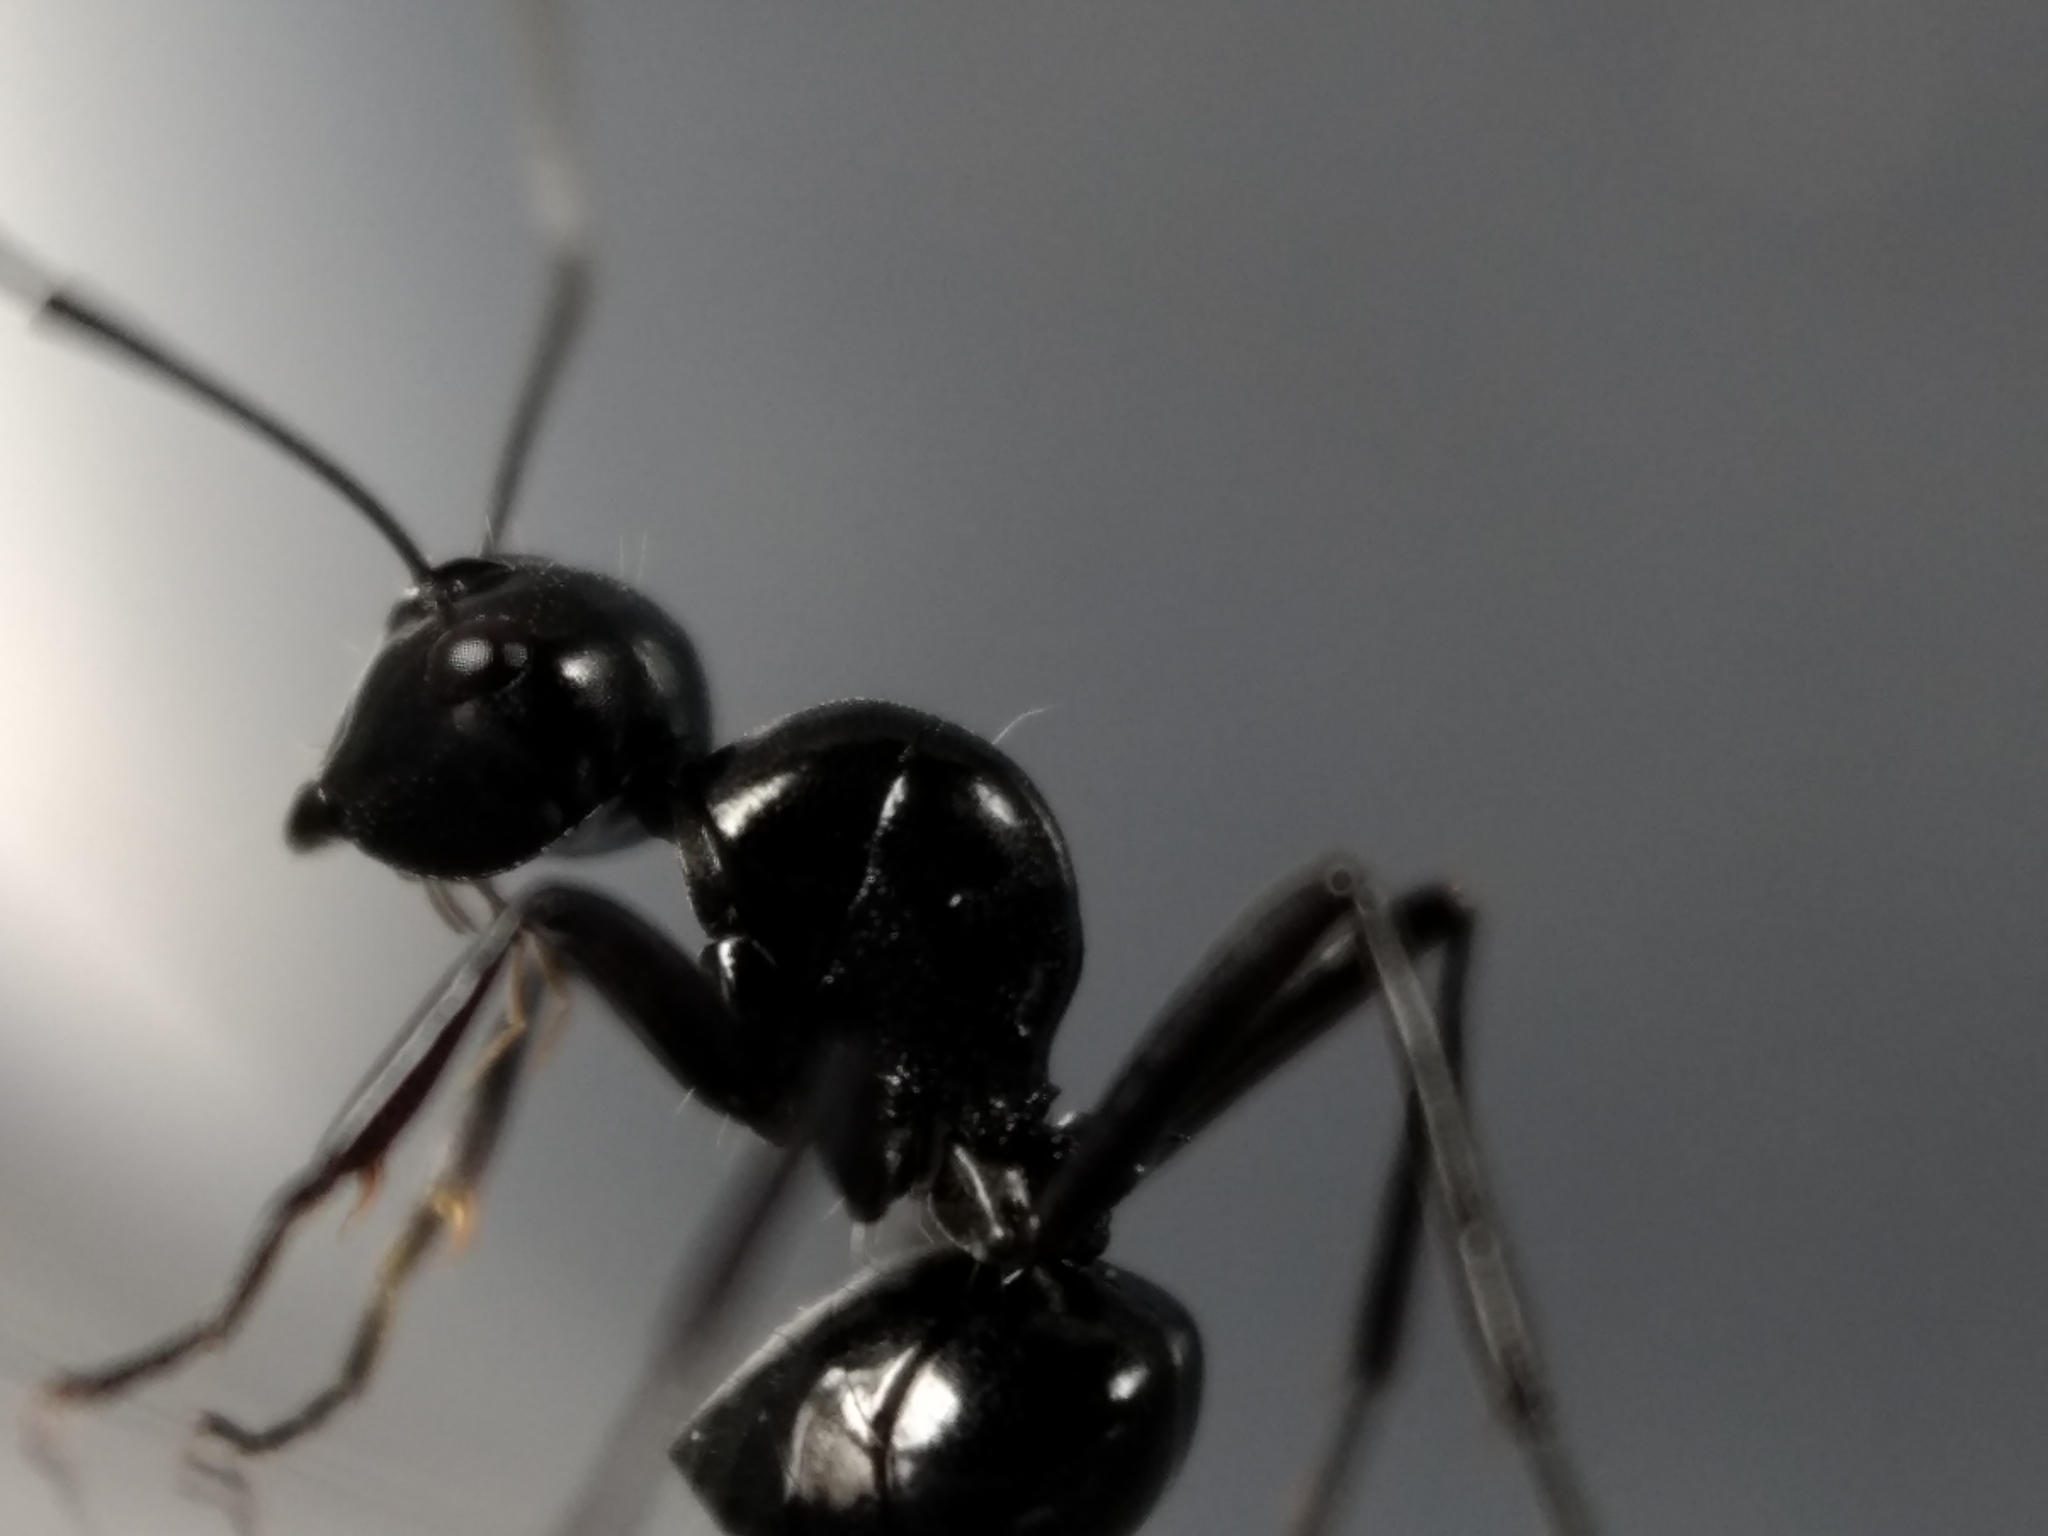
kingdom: Animalia
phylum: Arthropoda
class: Insecta
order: Hymenoptera
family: Formicidae
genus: Polyrhachis
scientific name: Polyrhachis mackayi
